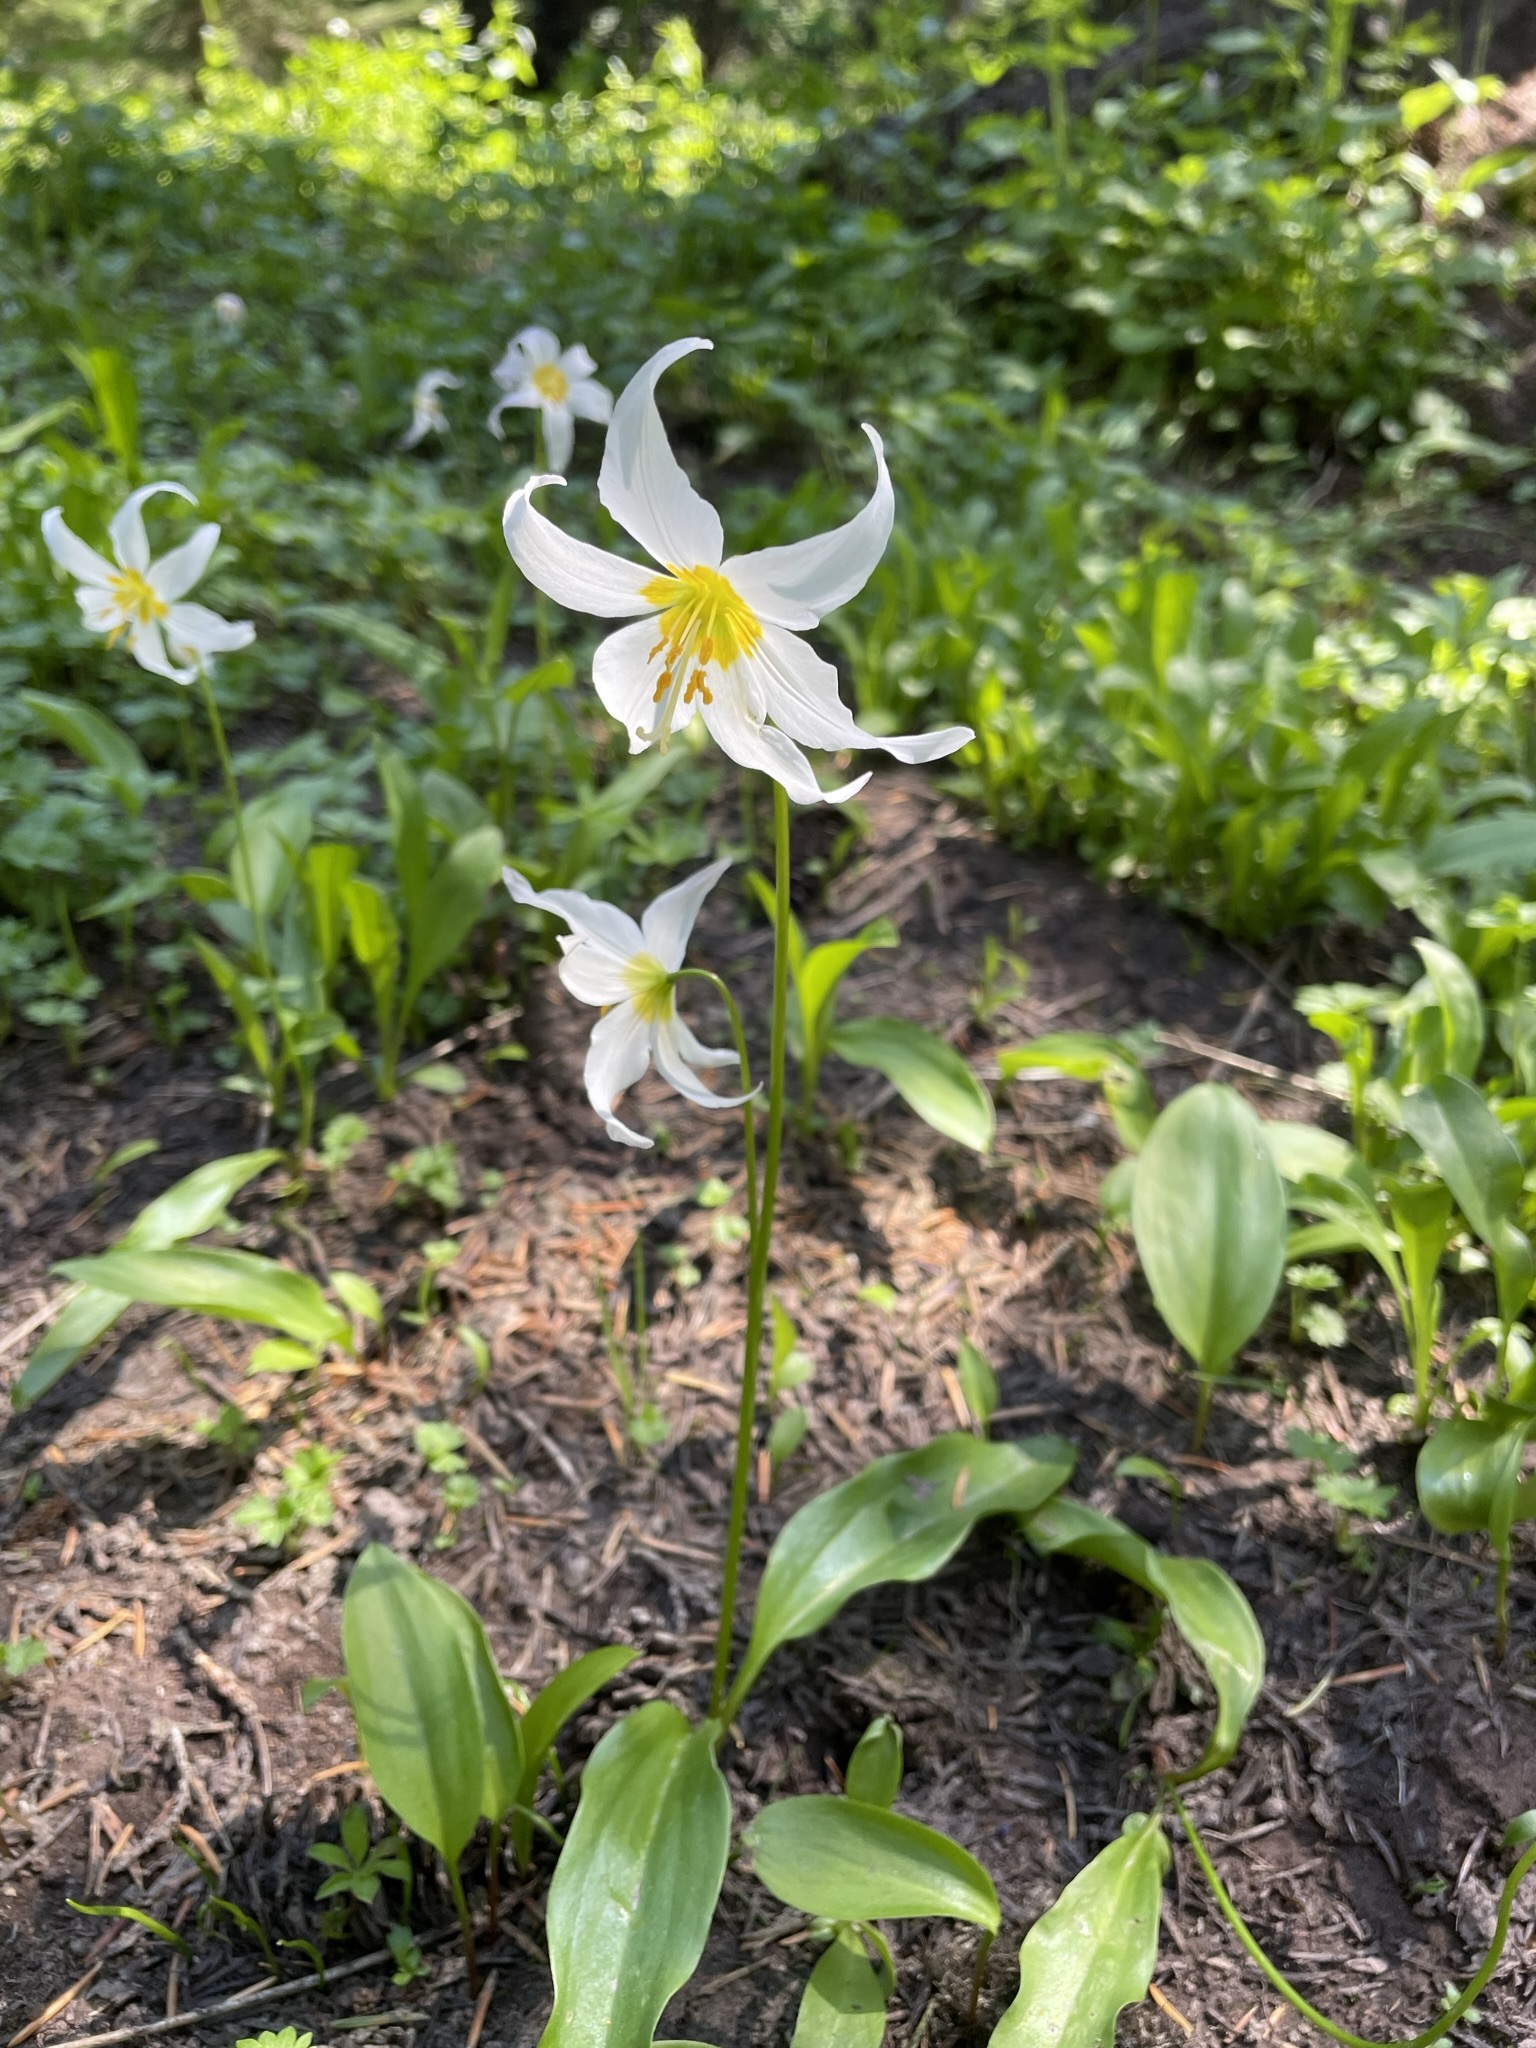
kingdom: Plantae
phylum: Tracheophyta
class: Liliopsida
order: Liliales
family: Liliaceae
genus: Erythronium
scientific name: Erythronium montanum
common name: Avalanche lily
